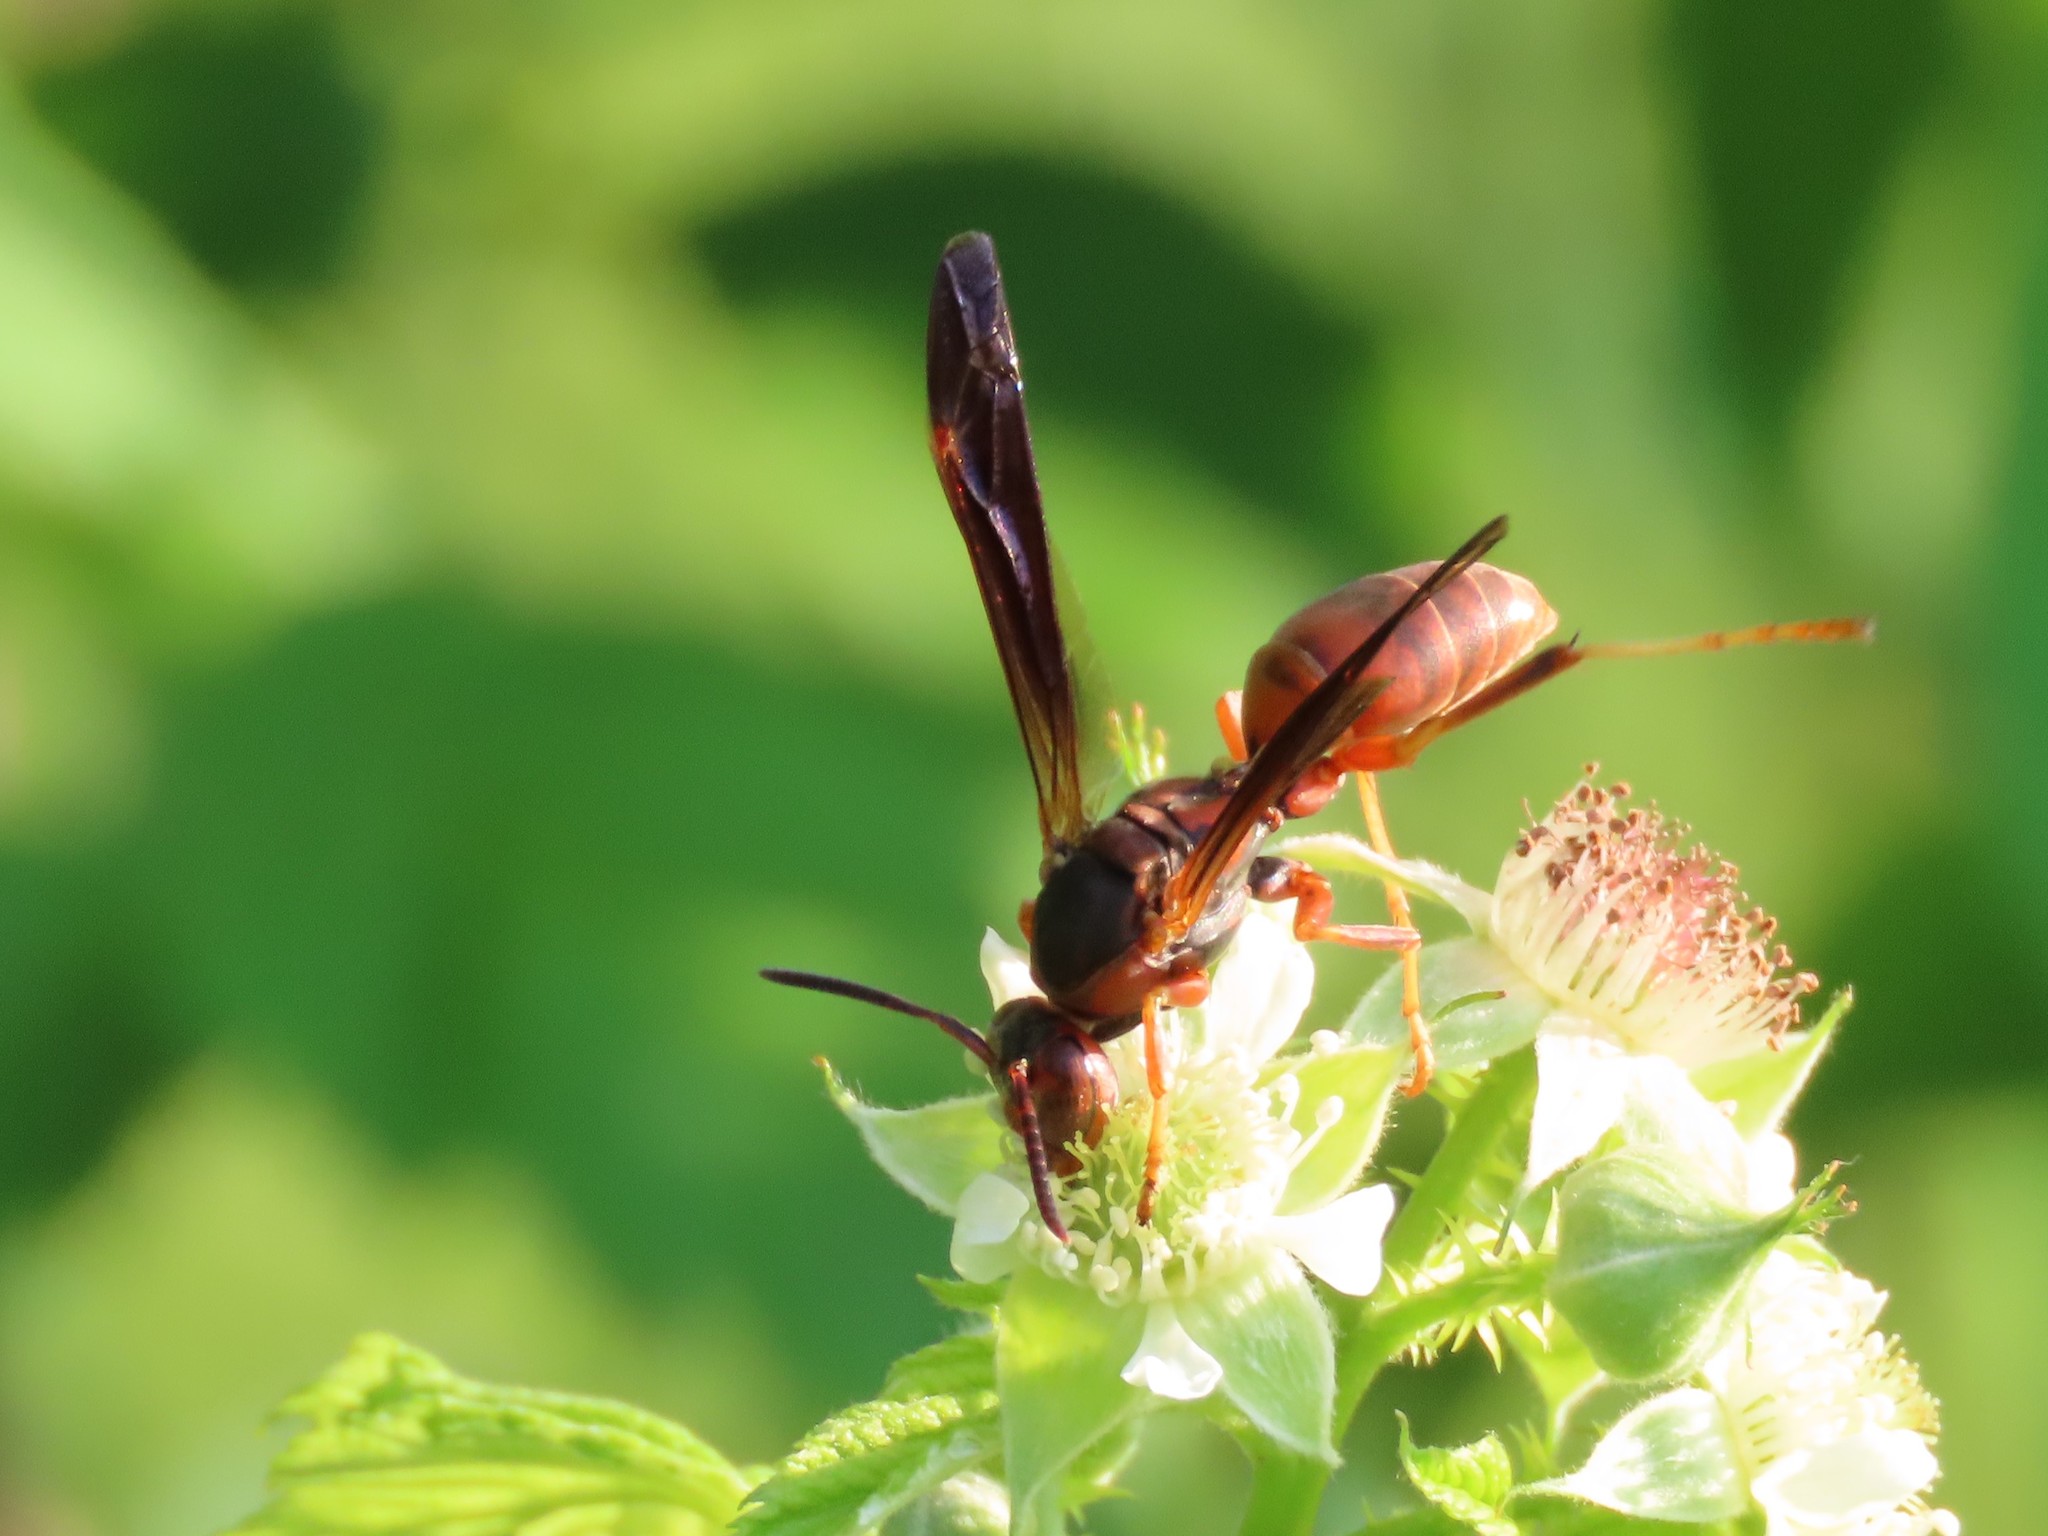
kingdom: Animalia
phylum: Arthropoda
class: Insecta
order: Hymenoptera
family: Eumenidae
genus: Polistes
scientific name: Polistes carolina
